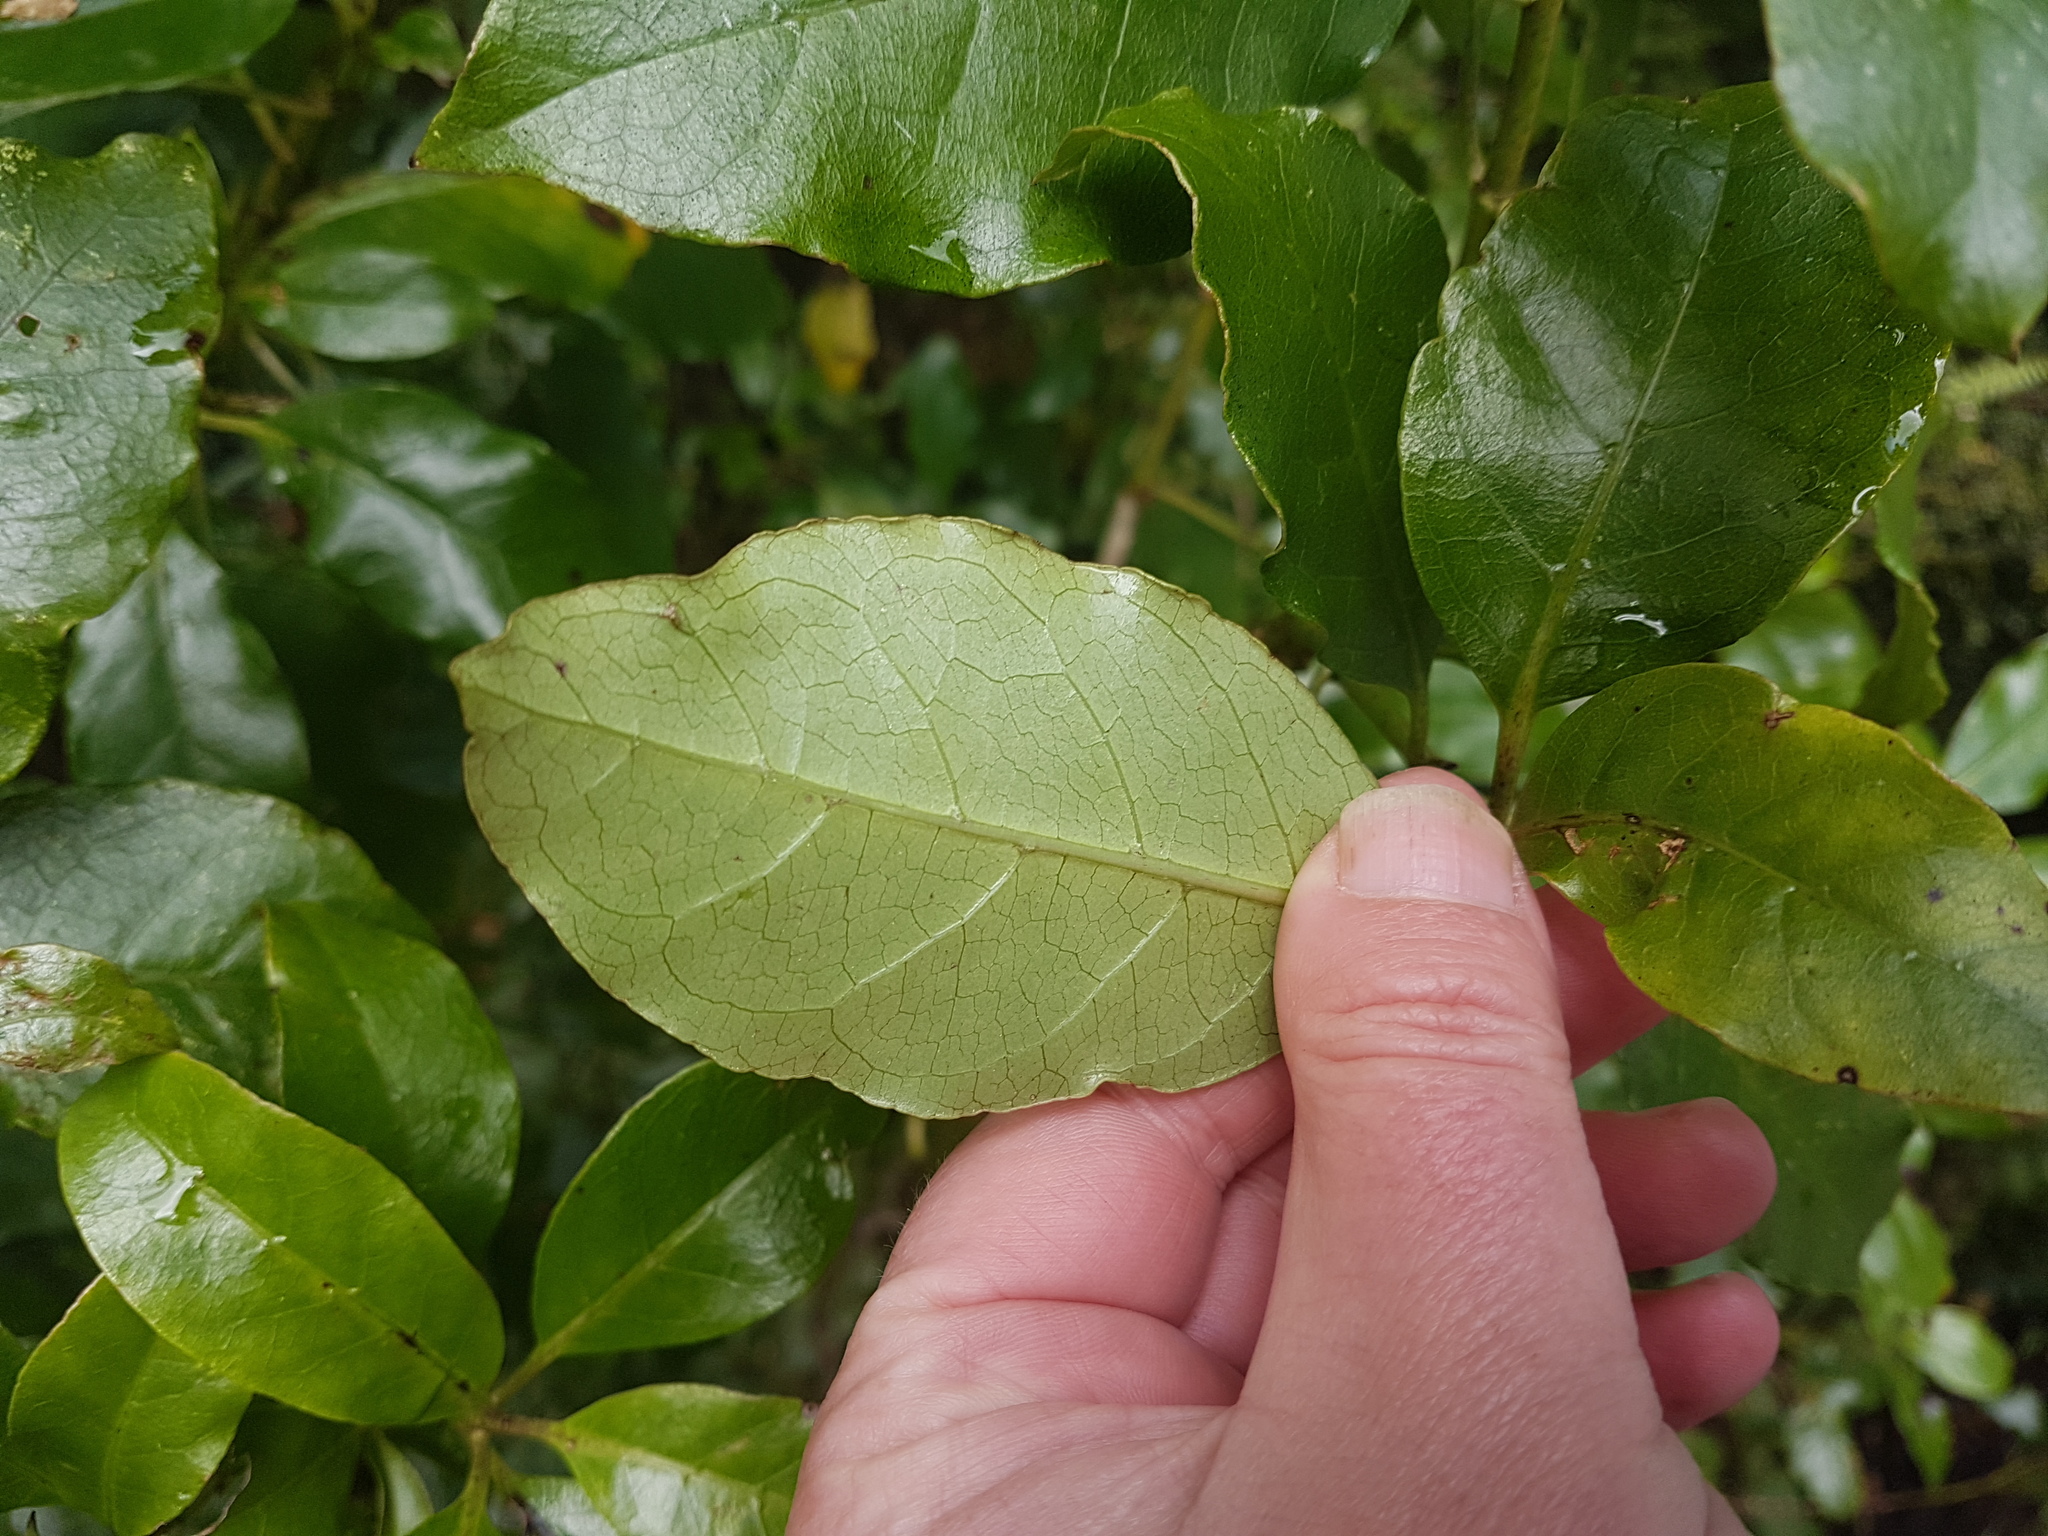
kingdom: Plantae
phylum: Tracheophyta
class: Magnoliopsida
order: Gentianales
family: Rubiaceae
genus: Coprosma
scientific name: Coprosma lucida
